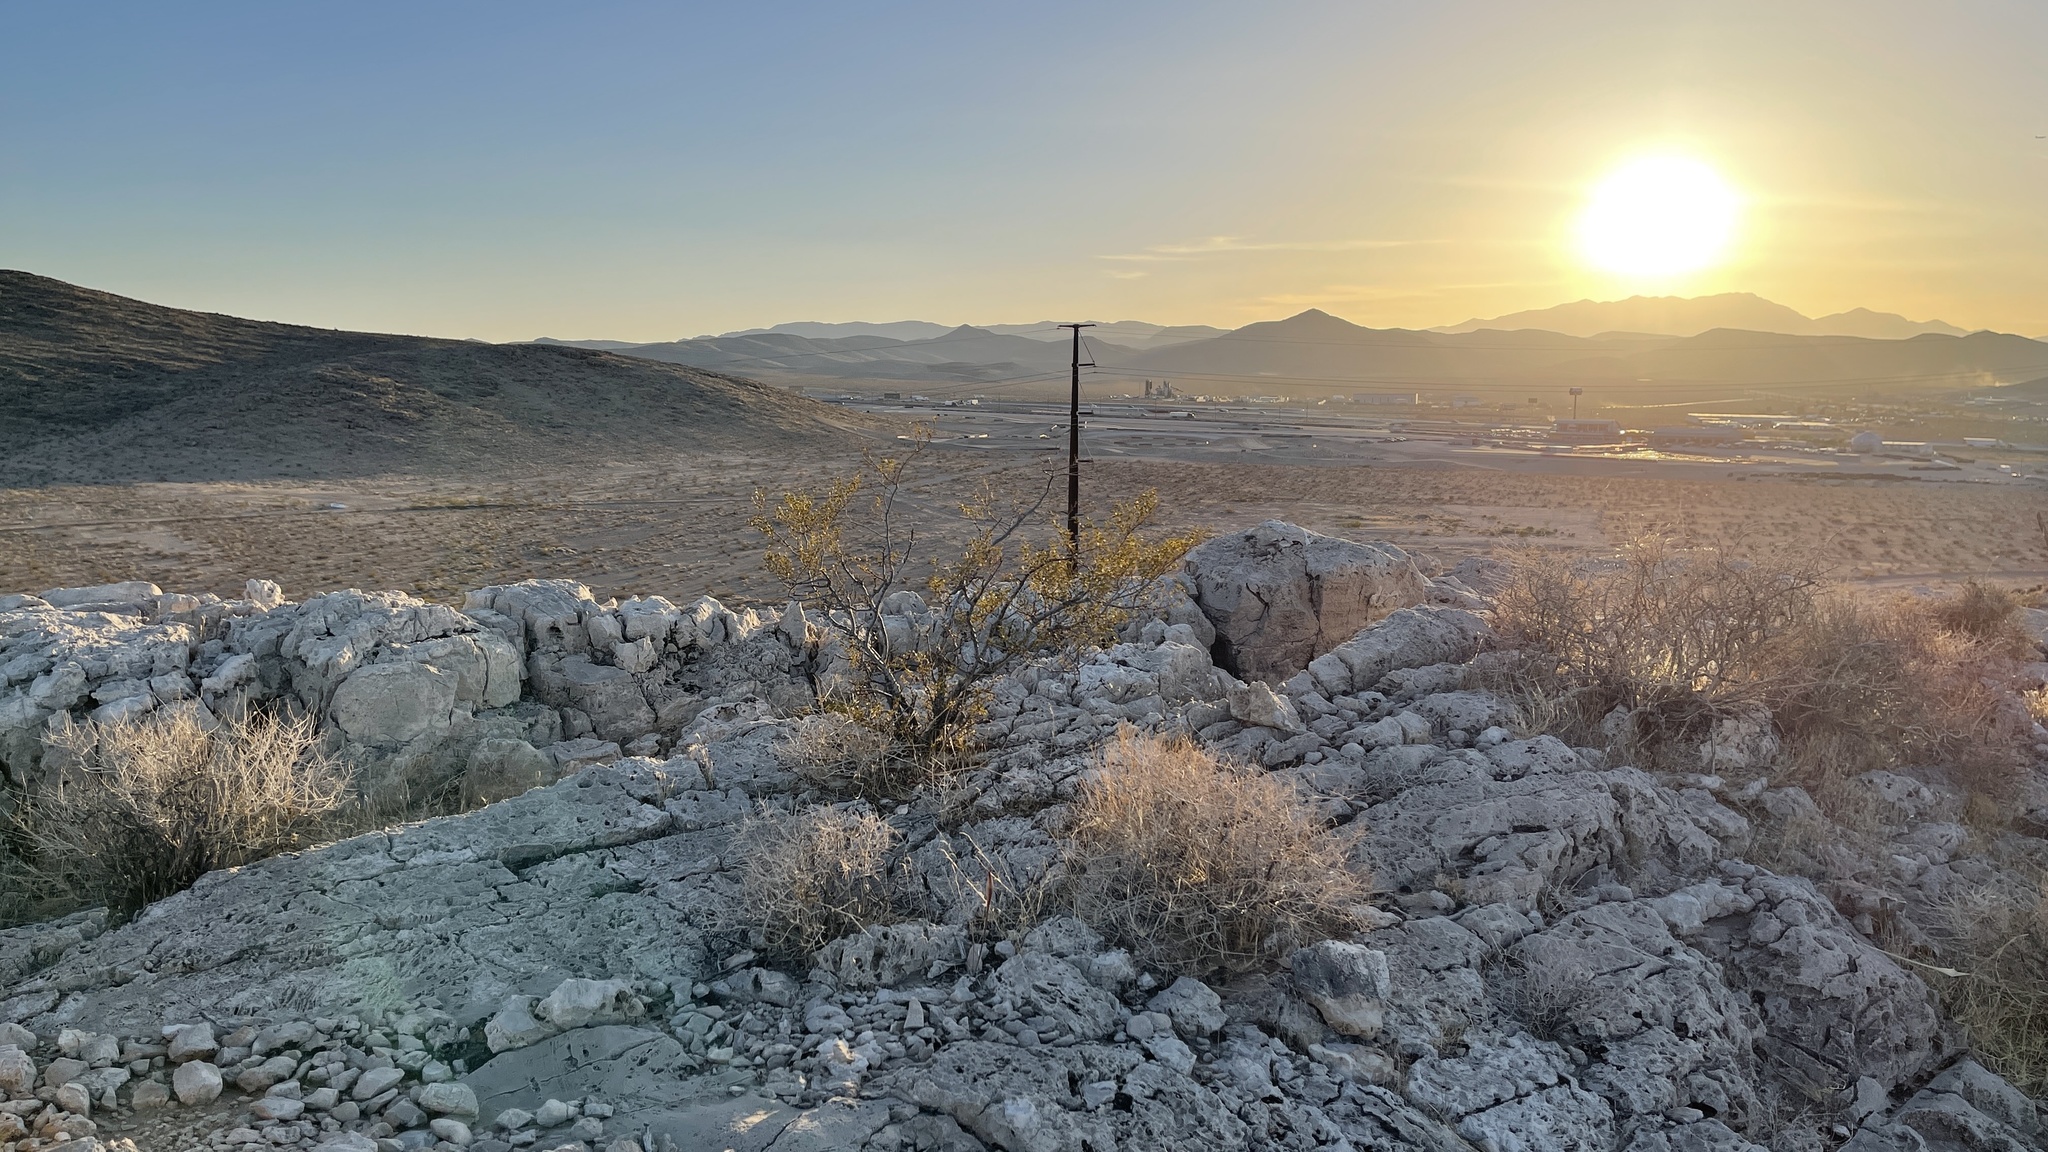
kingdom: Plantae
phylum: Tracheophyta
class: Magnoliopsida
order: Zygophyllales
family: Zygophyllaceae
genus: Larrea
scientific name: Larrea tridentata
